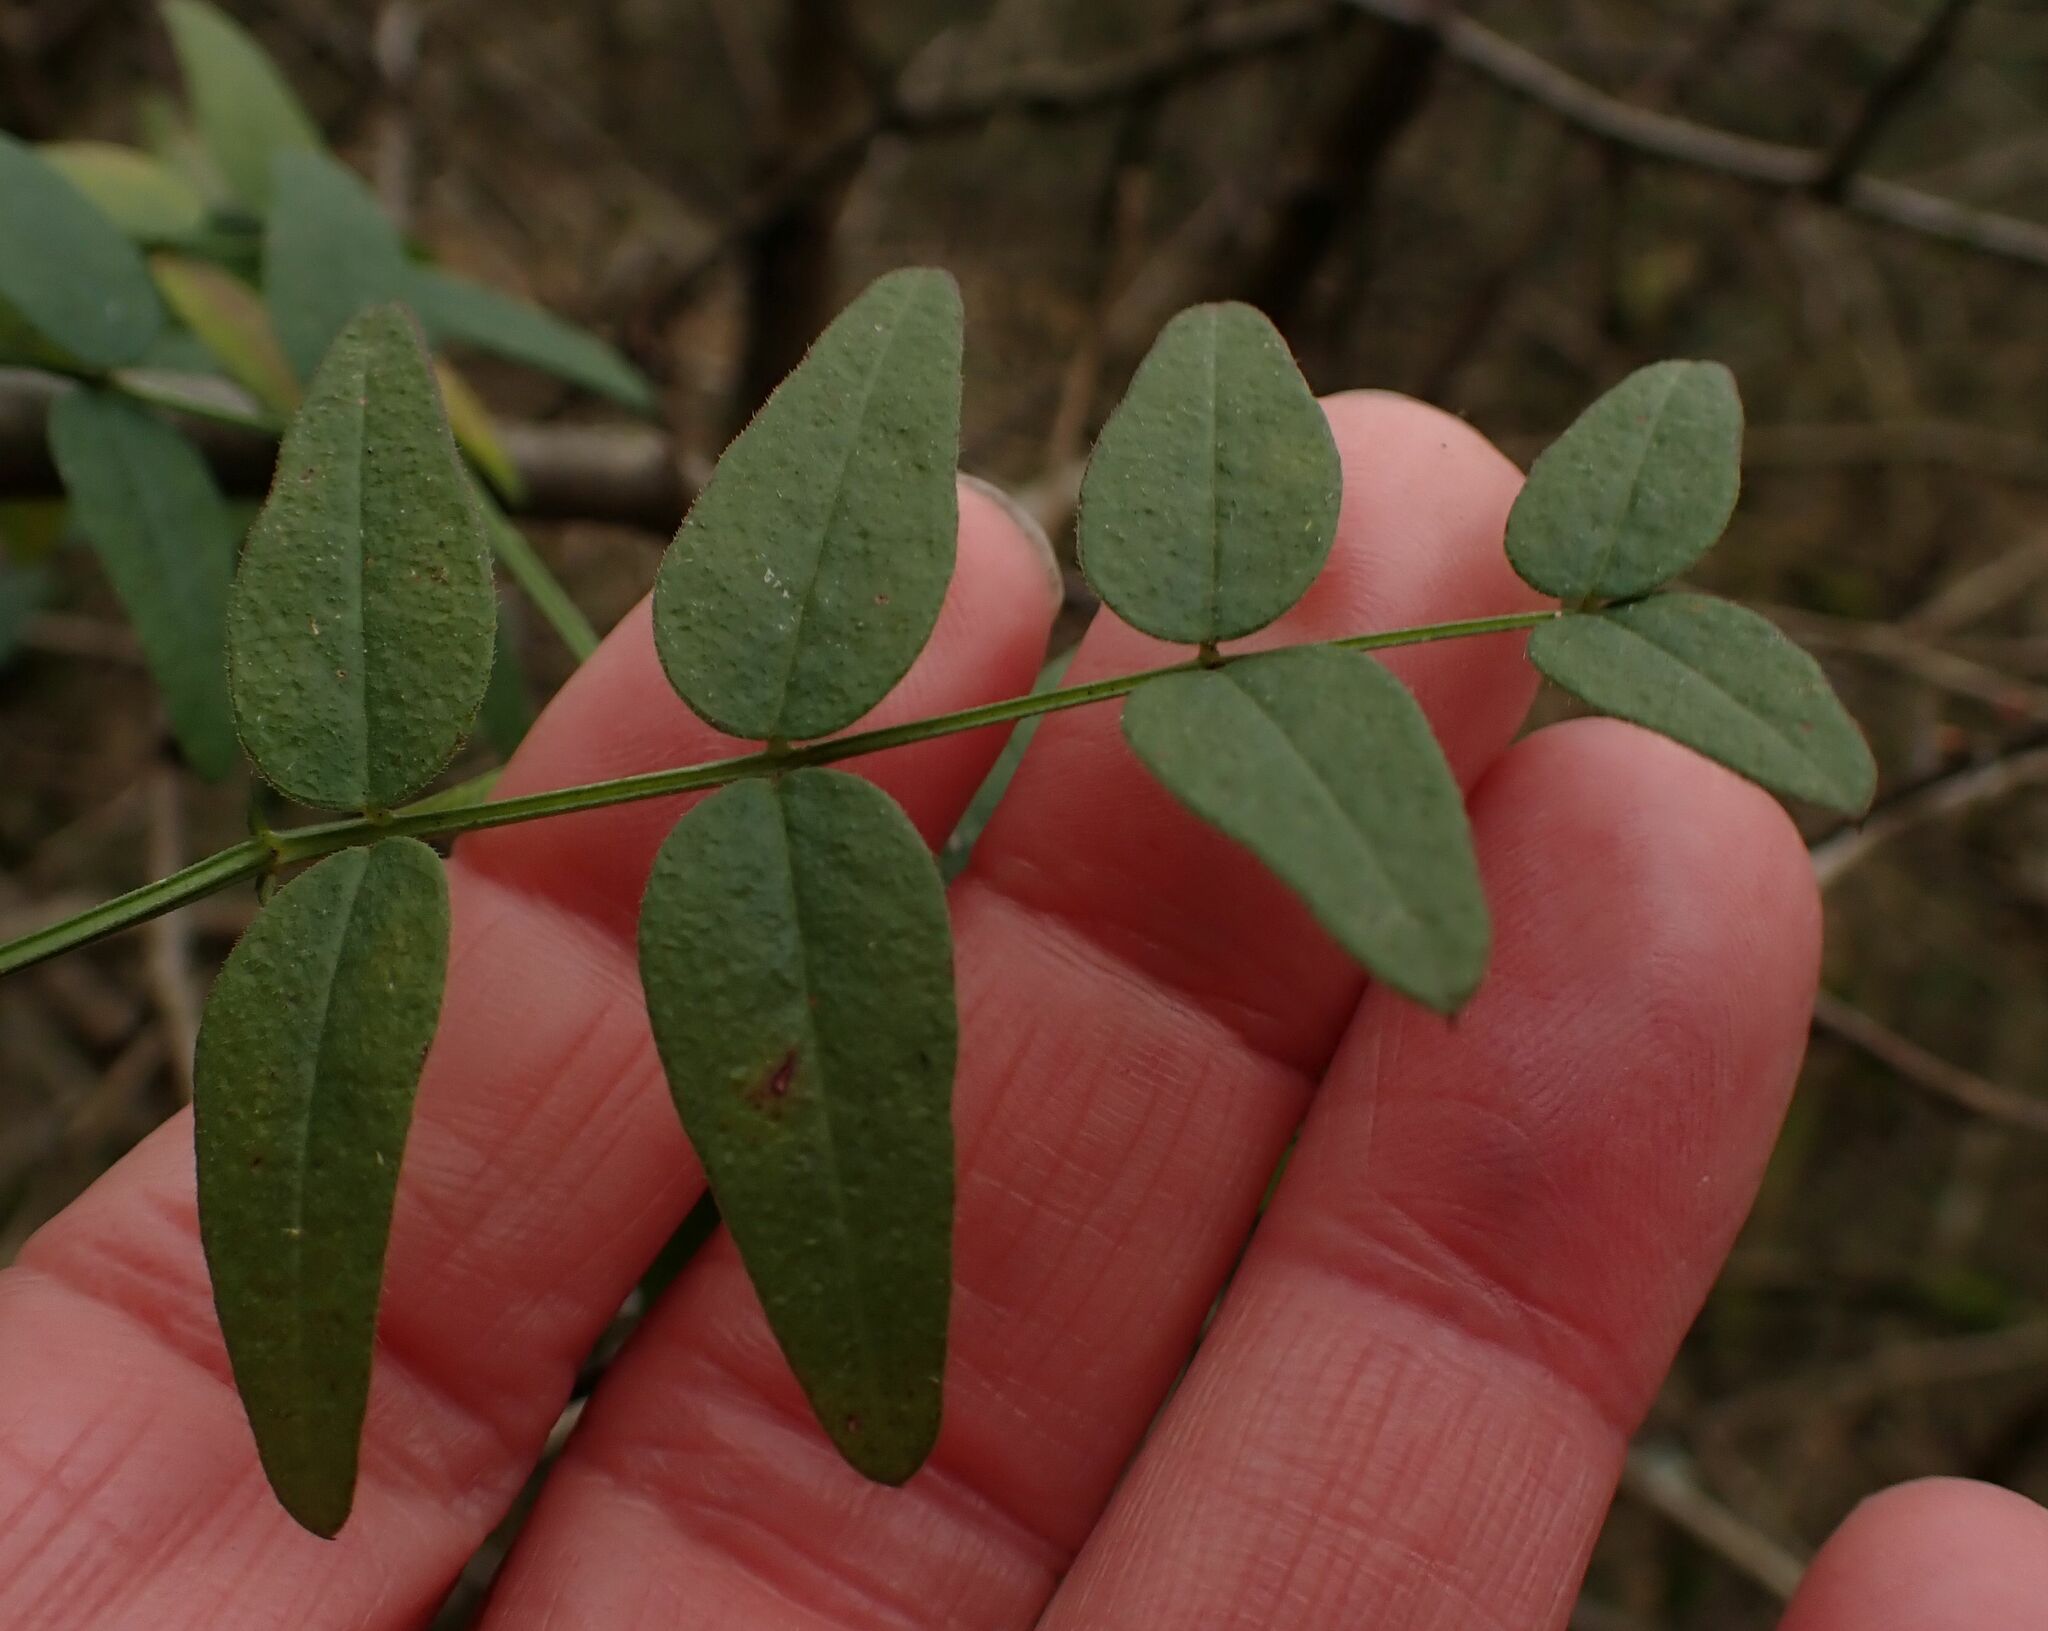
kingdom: Plantae
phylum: Tracheophyta
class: Magnoliopsida
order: Fabales
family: Fabaceae
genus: Vicia
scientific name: Vicia sepium
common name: Bush vetch
